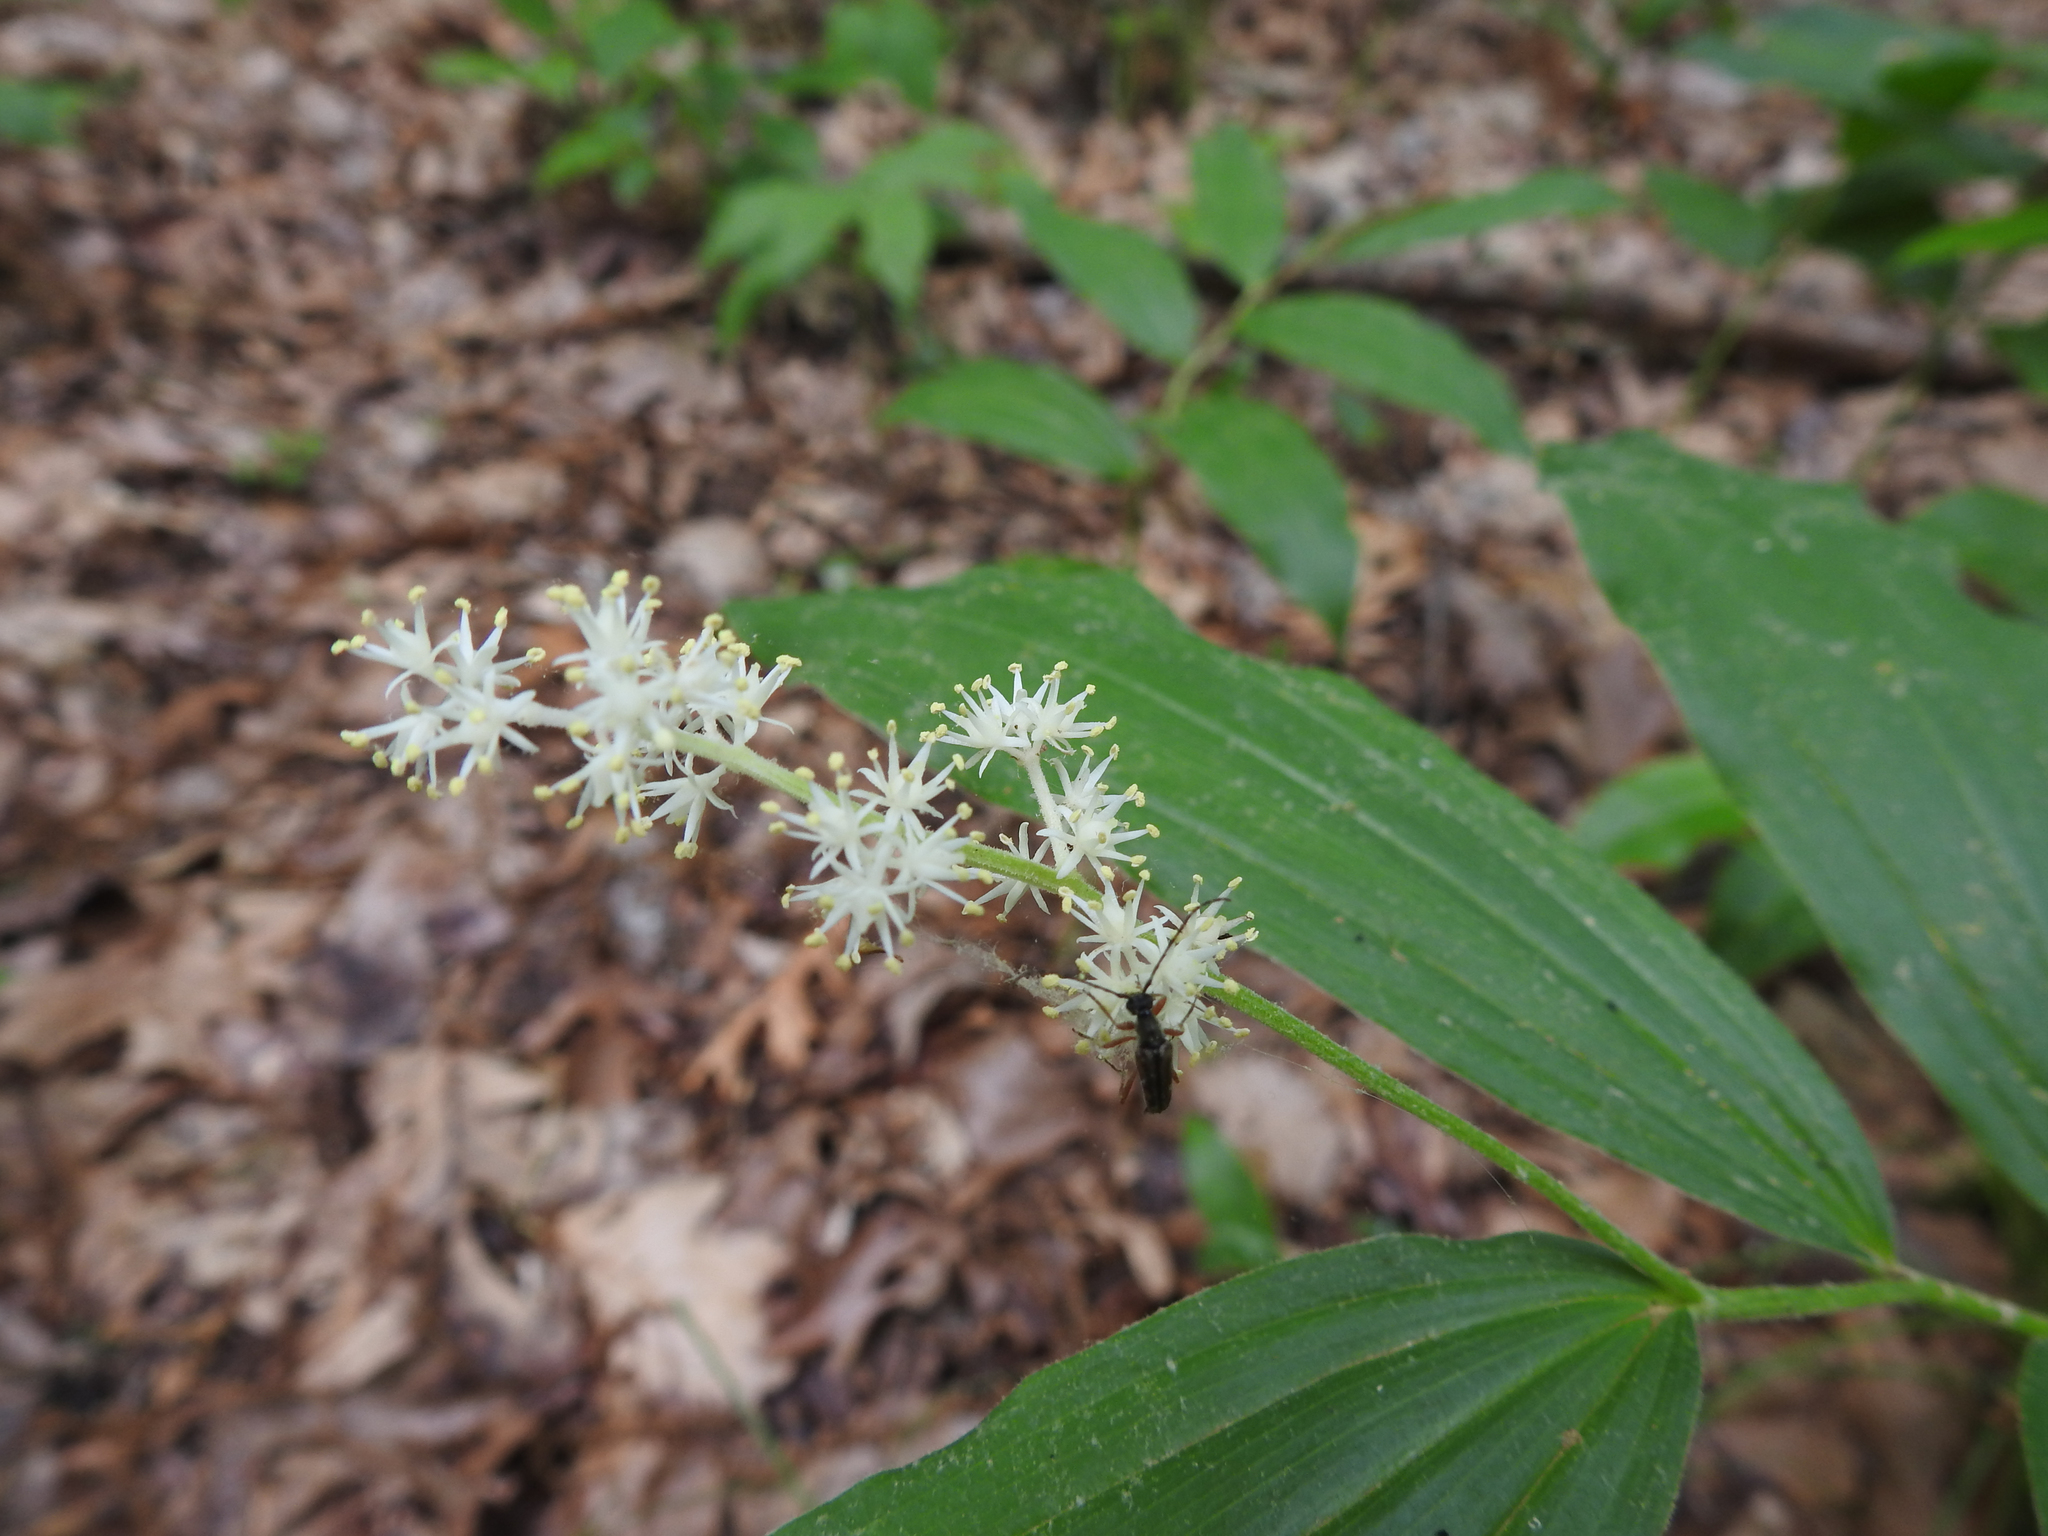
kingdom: Plantae
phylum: Tracheophyta
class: Liliopsida
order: Asparagales
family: Asparagaceae
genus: Maianthemum
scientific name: Maianthemum racemosum
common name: False spikenard
